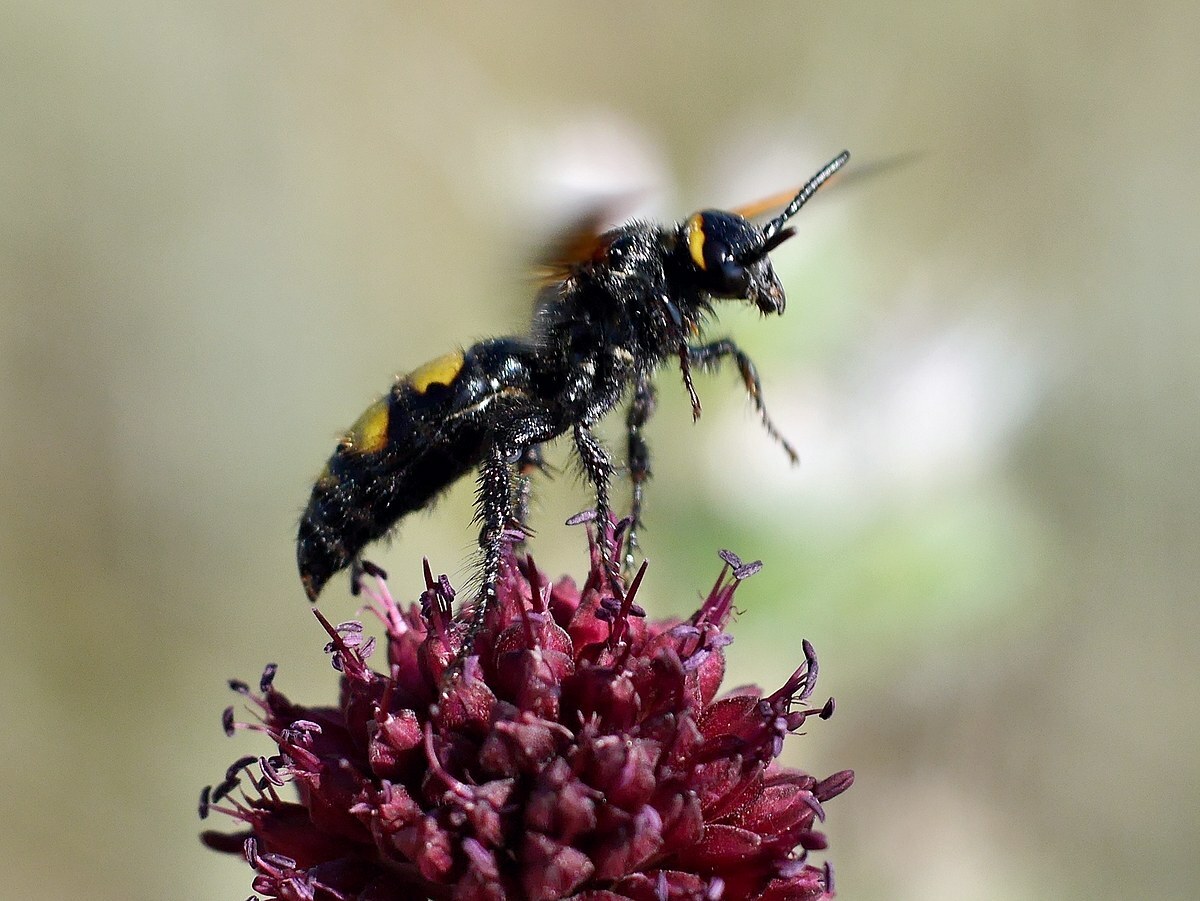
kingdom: Animalia
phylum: Arthropoda
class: Insecta
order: Hymenoptera
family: Scoliidae
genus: Scolia
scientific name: Scolia fuciformis
